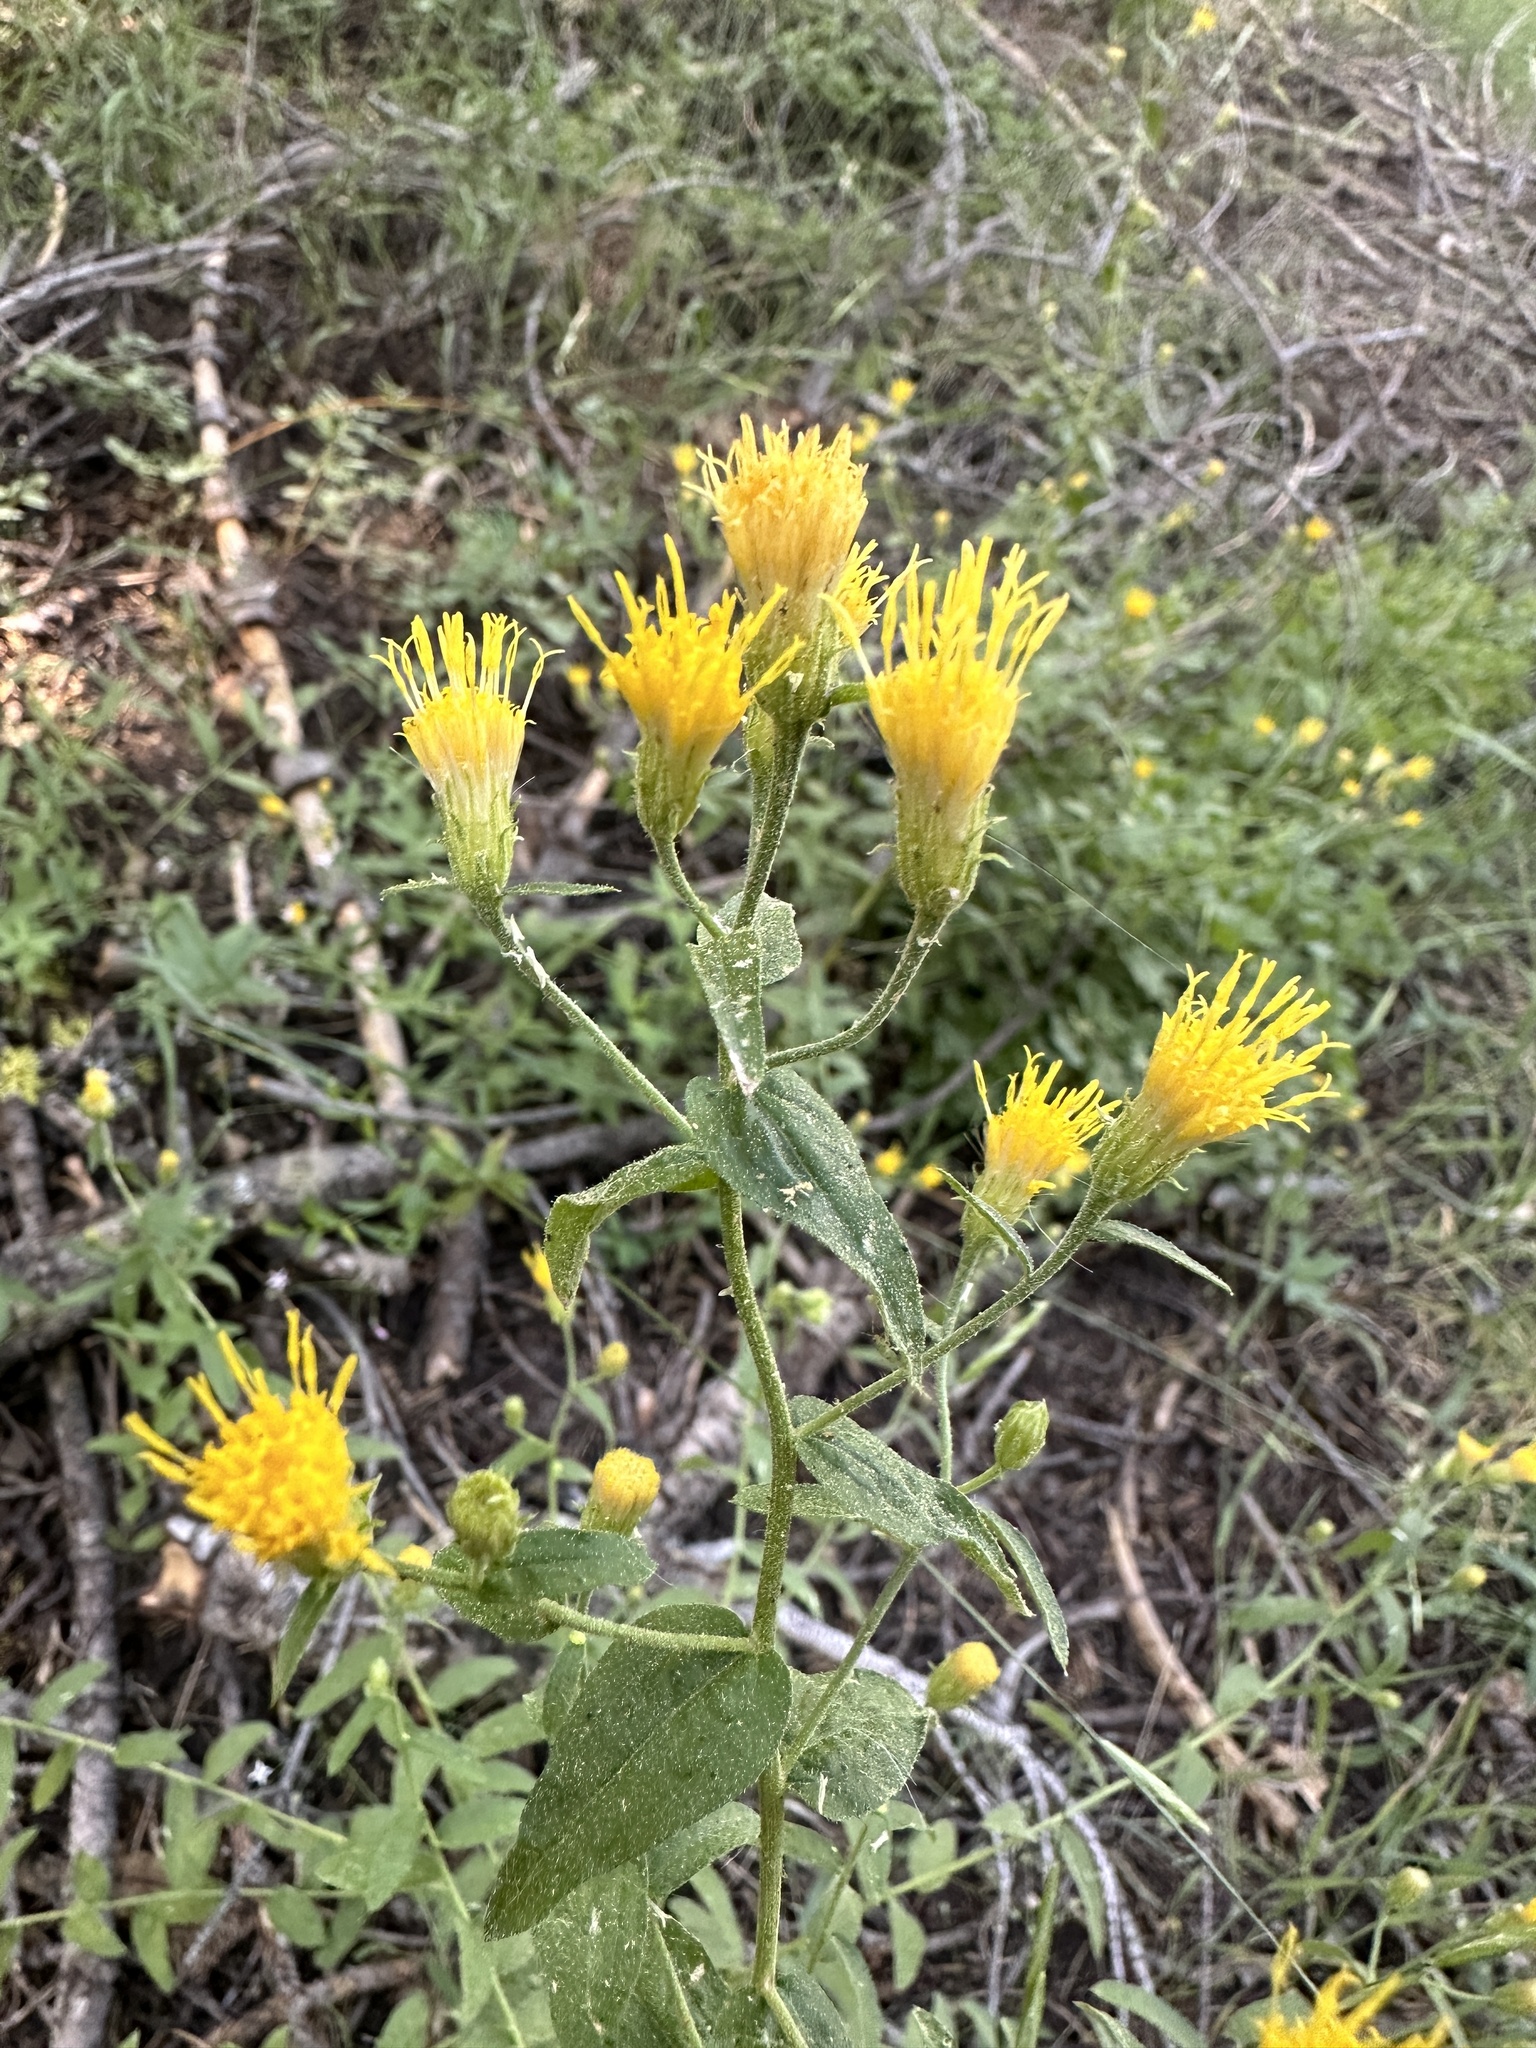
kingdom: Plantae
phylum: Tracheophyta
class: Magnoliopsida
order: Asterales
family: Asteraceae
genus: Eucephalus
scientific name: Eucephalus breweri
